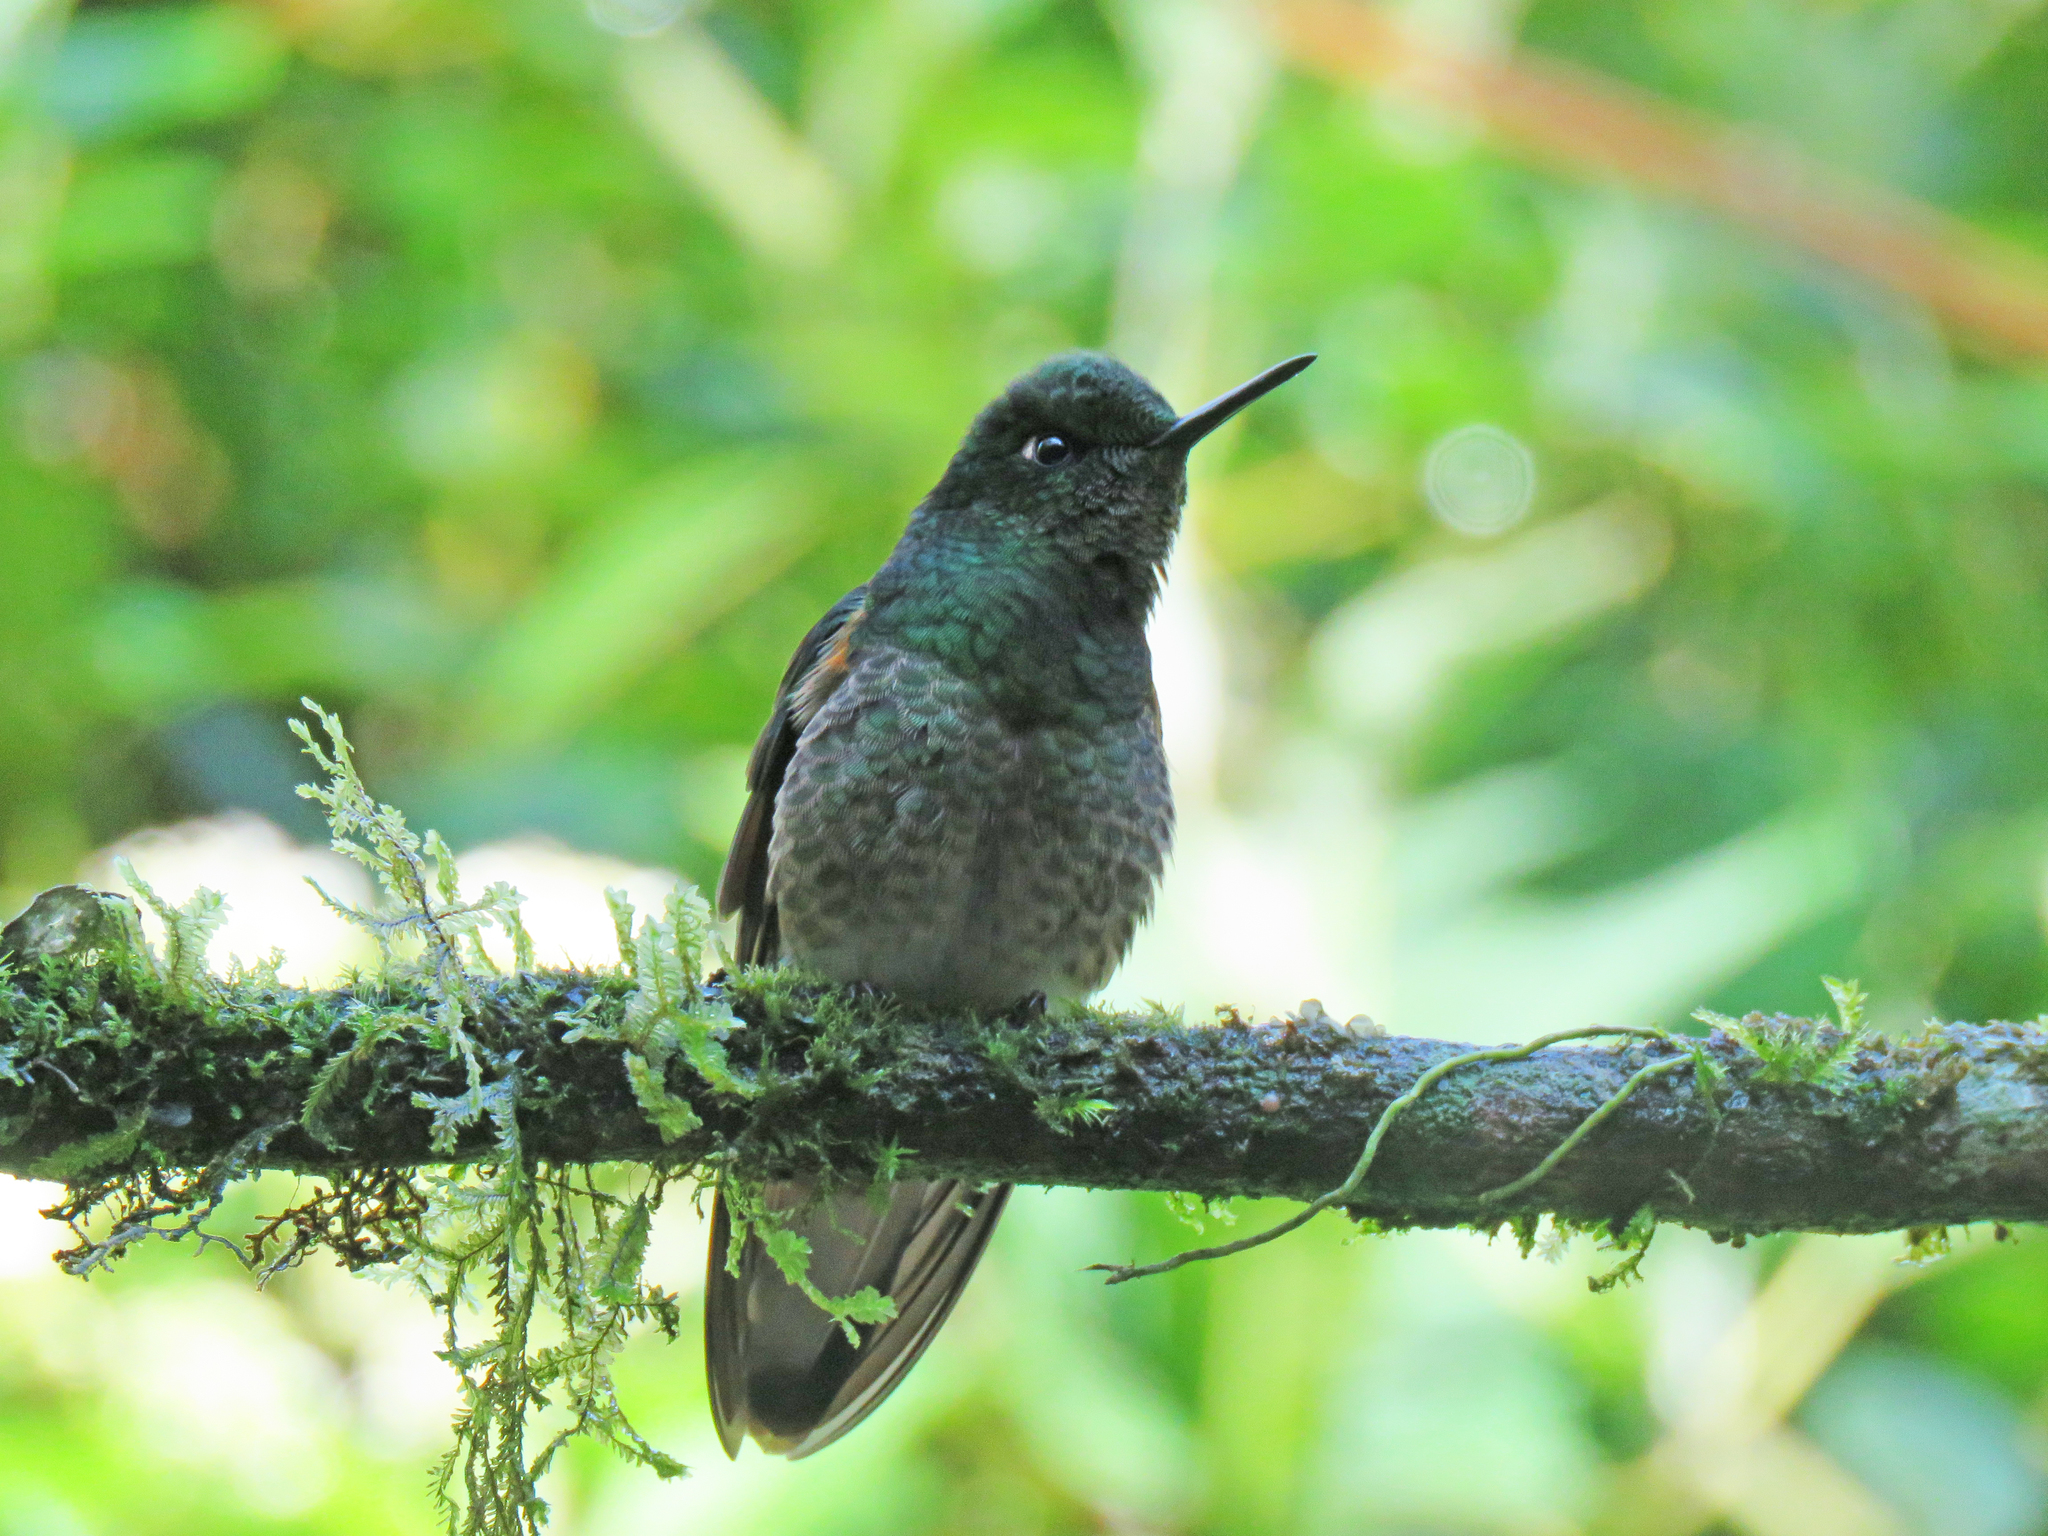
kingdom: Animalia
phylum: Chordata
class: Aves
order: Apodiformes
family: Trochilidae
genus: Boissonneaua
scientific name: Boissonneaua flavescens
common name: Buff-tailed coronet
